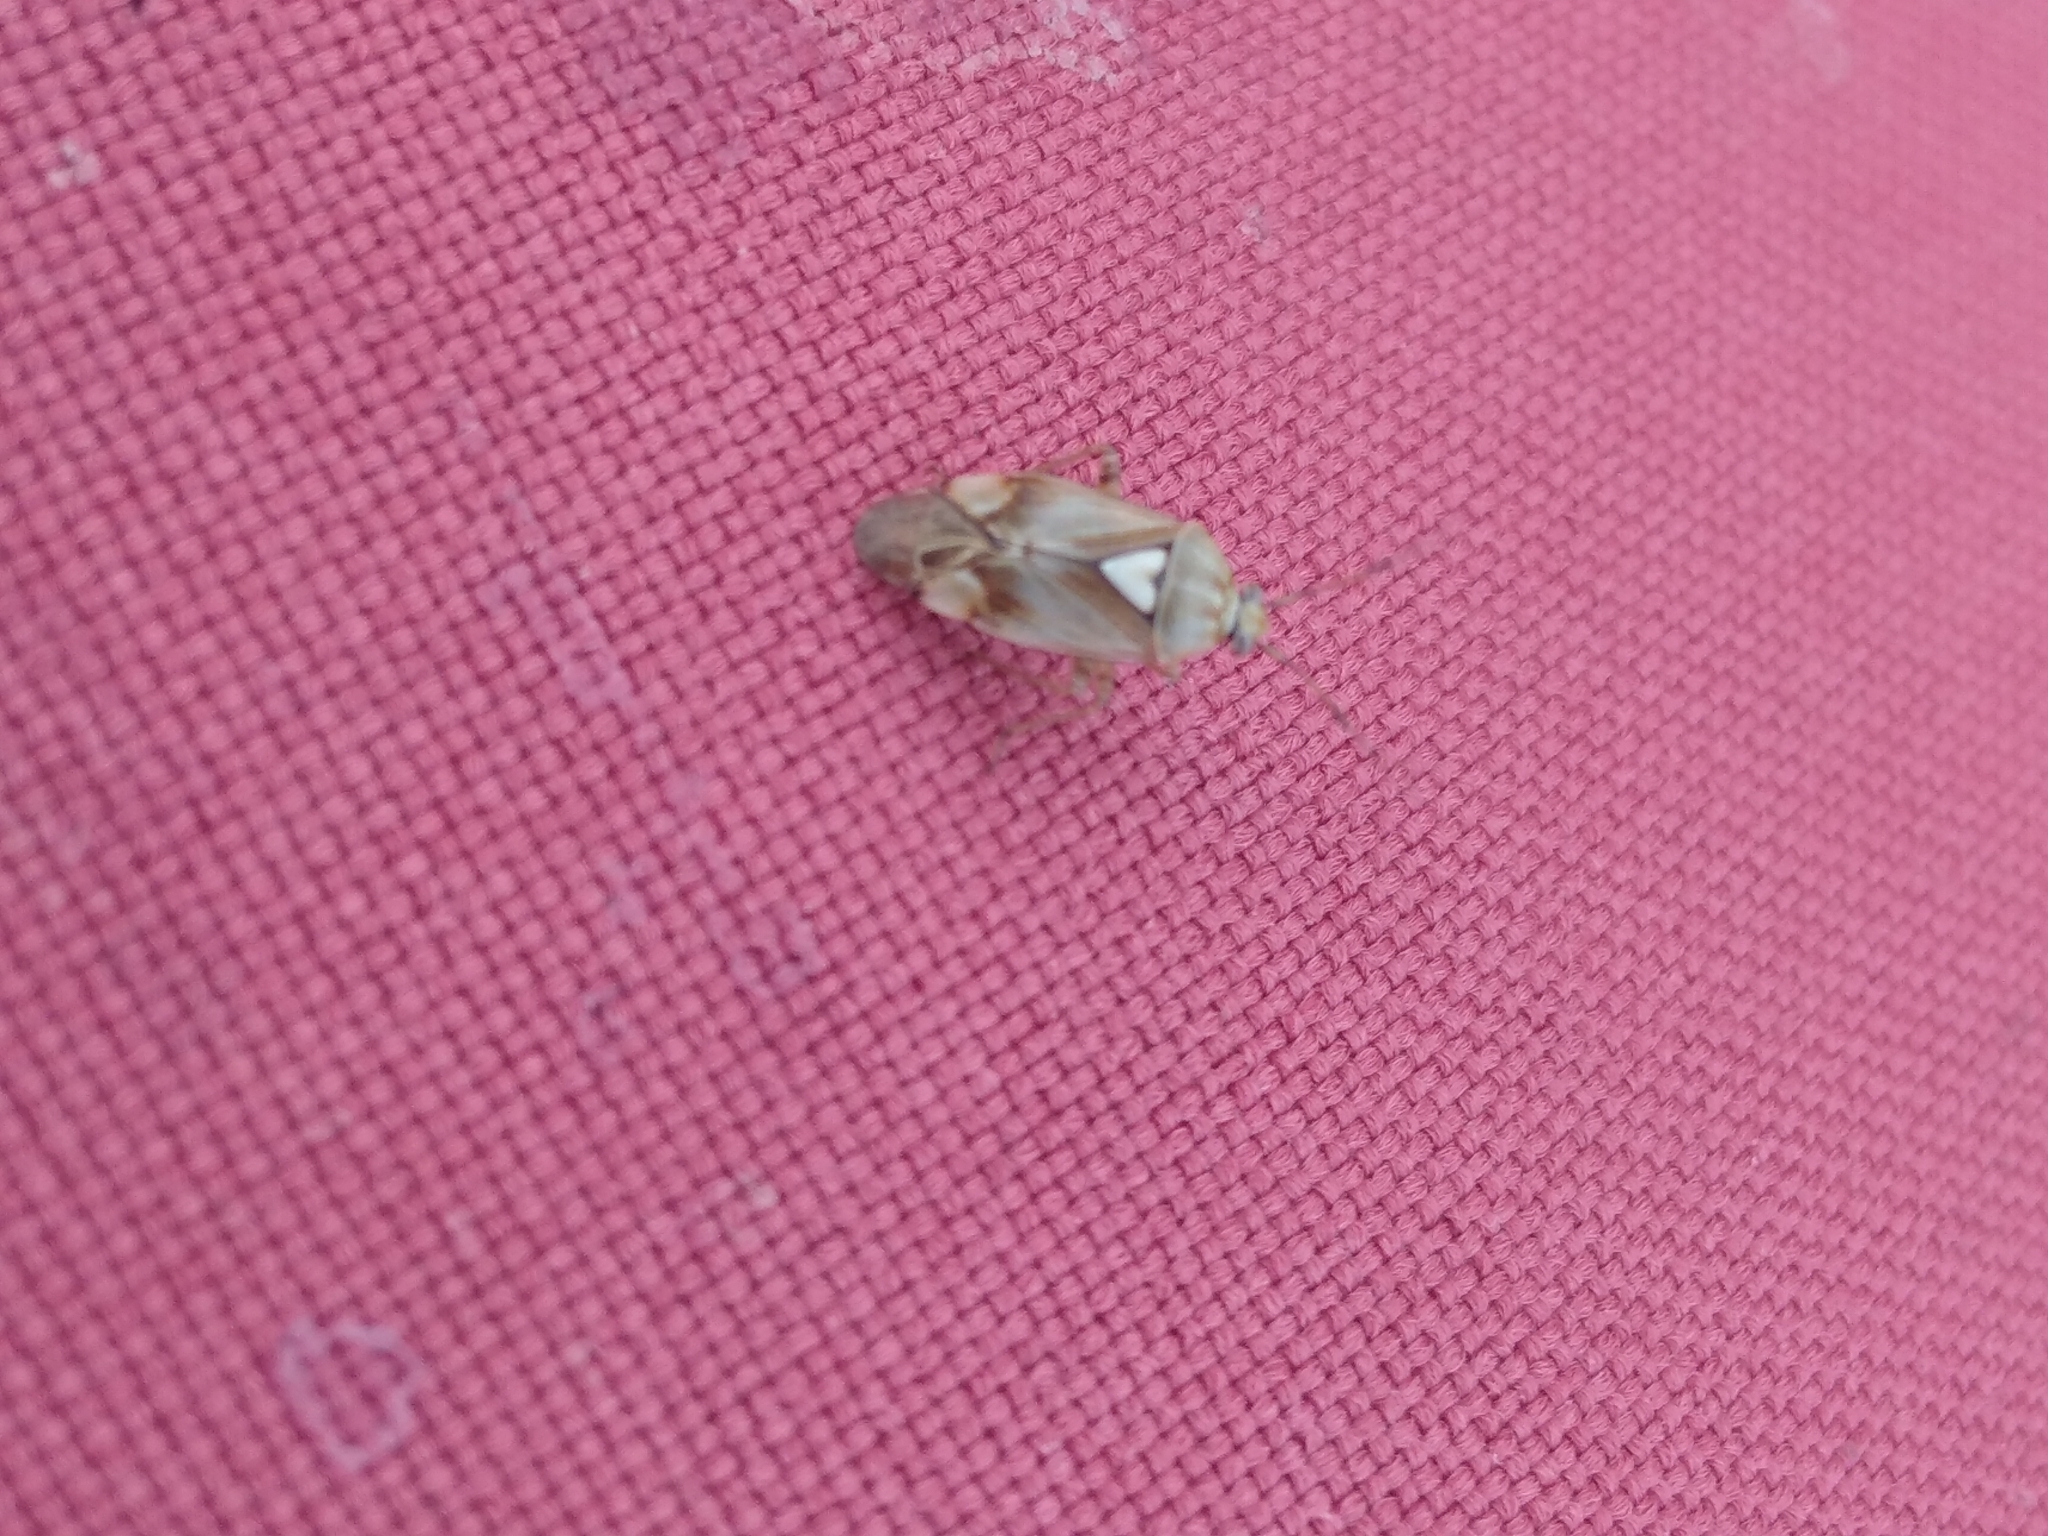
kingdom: Animalia
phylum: Arthropoda
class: Insecta
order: Hemiptera
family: Miridae
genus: Lygus
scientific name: Lygus pratensis
